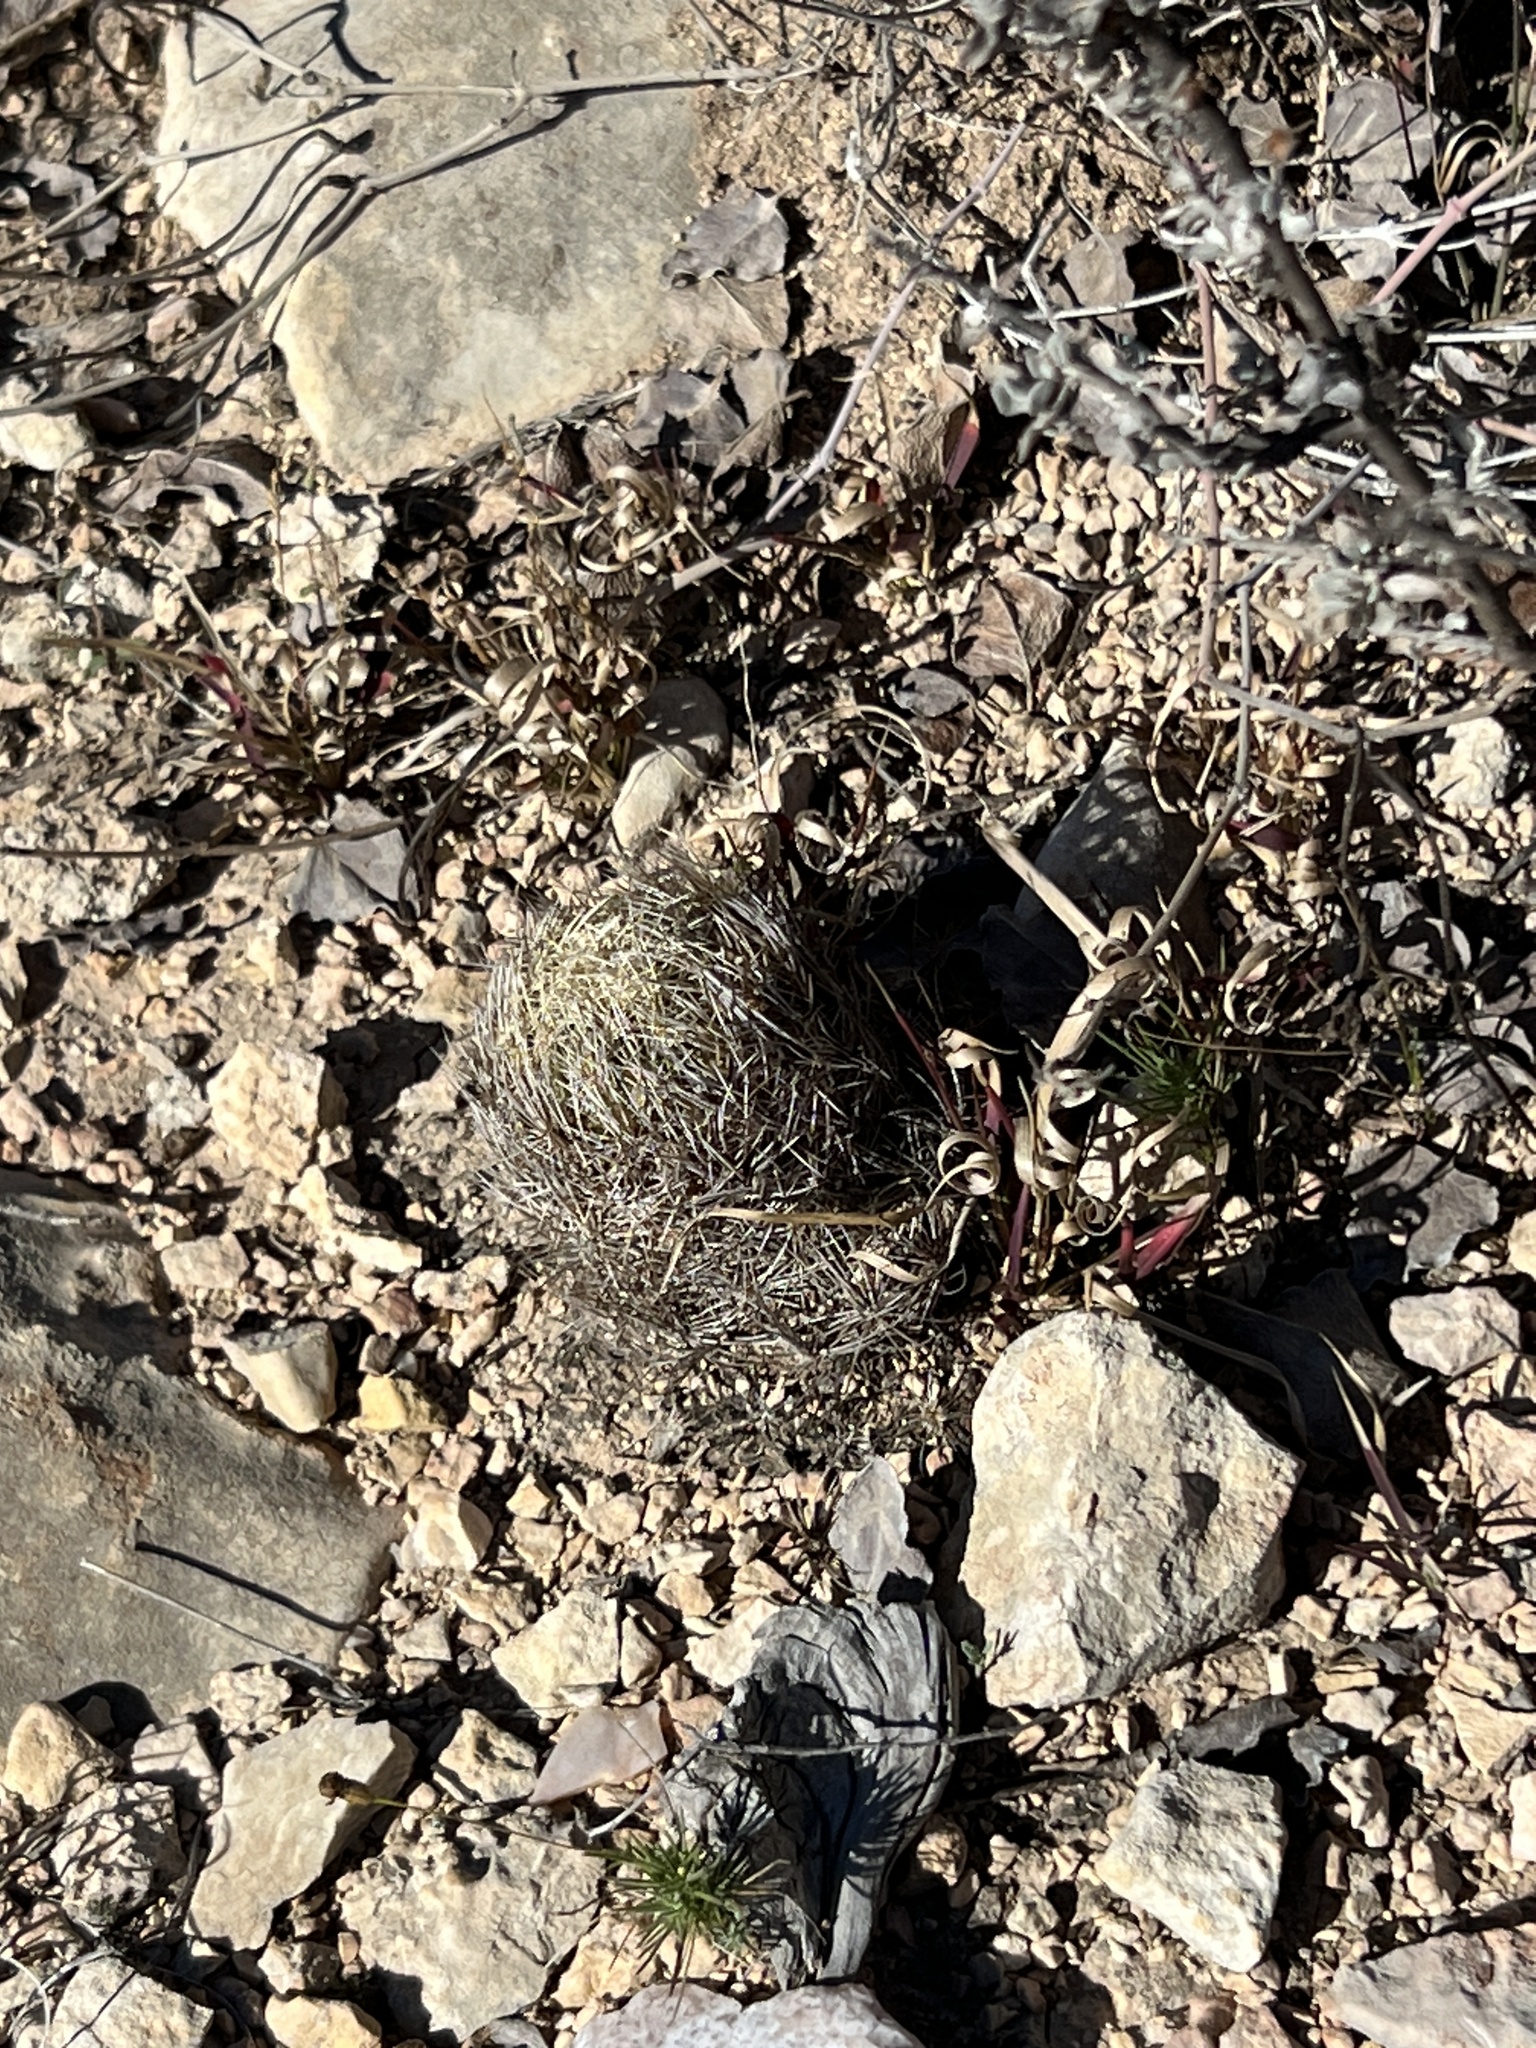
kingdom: Plantae
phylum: Tracheophyta
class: Magnoliopsida
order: Caryophyllales
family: Cactaceae
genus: Coryphantha
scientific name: Coryphantha echinus
